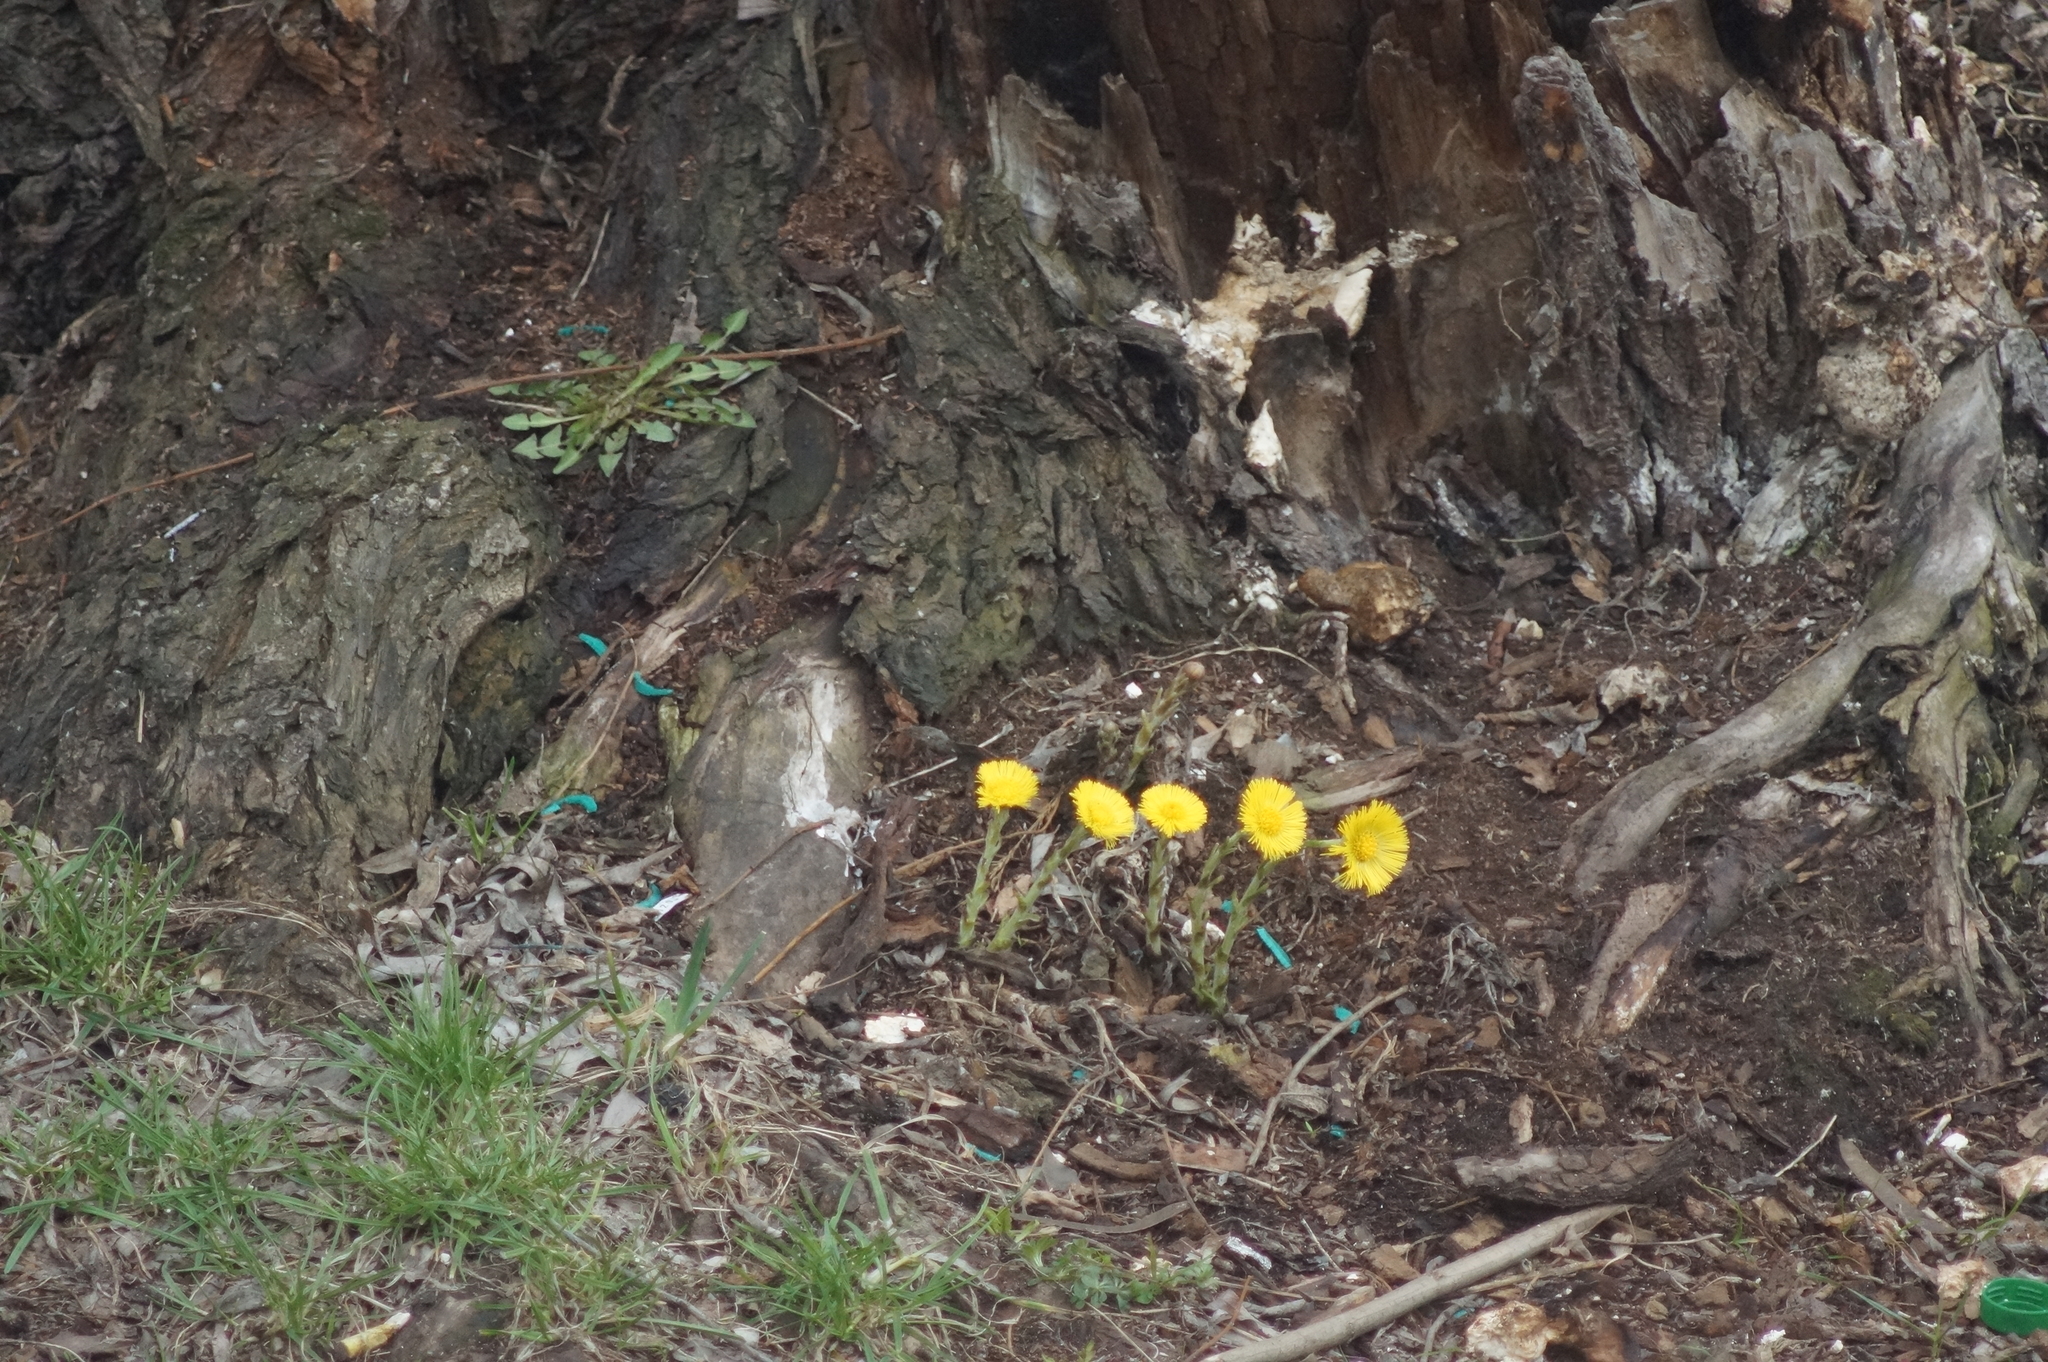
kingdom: Plantae
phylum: Tracheophyta
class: Magnoliopsida
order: Asterales
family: Asteraceae
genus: Tussilago
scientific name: Tussilago farfara
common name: Coltsfoot
